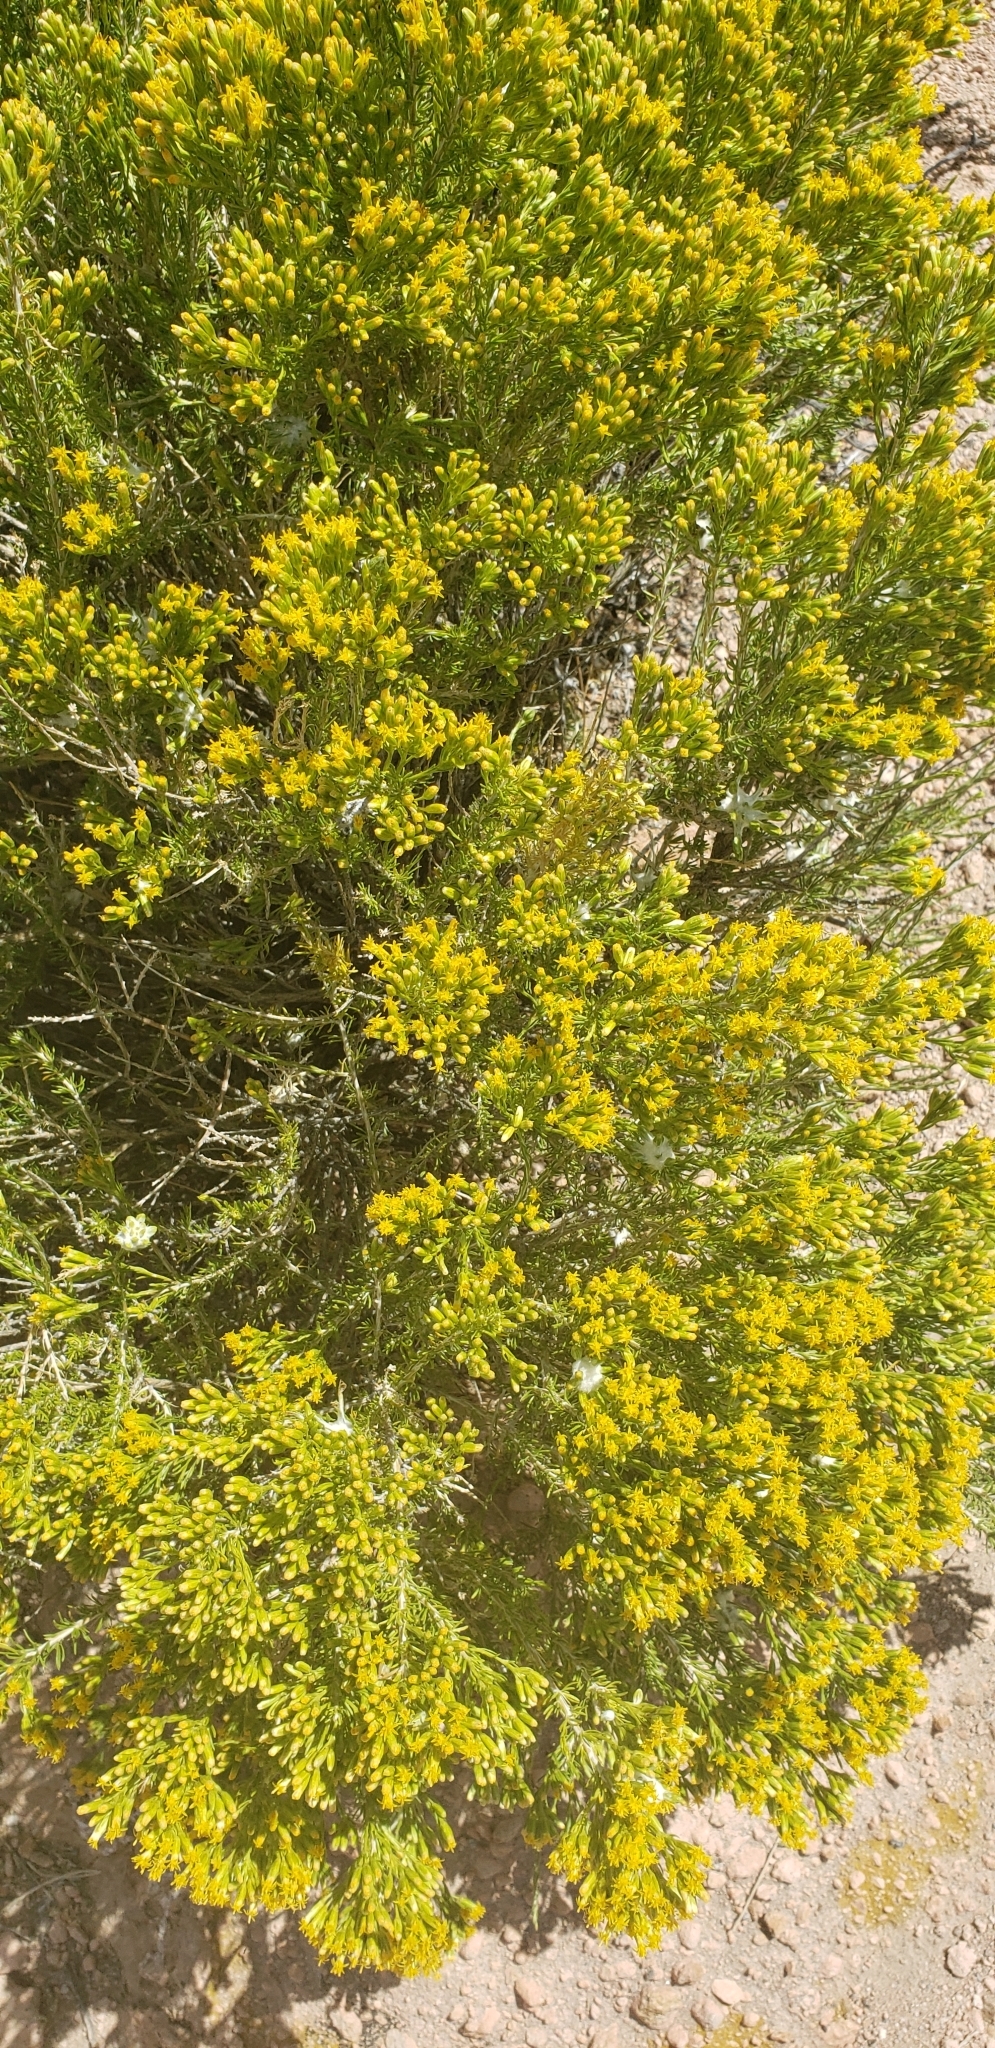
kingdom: Plantae
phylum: Tracheophyta
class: Magnoliopsida
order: Asterales
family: Asteraceae
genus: Tetradymia
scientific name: Tetradymia glabrata
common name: Smooth tetradymia
